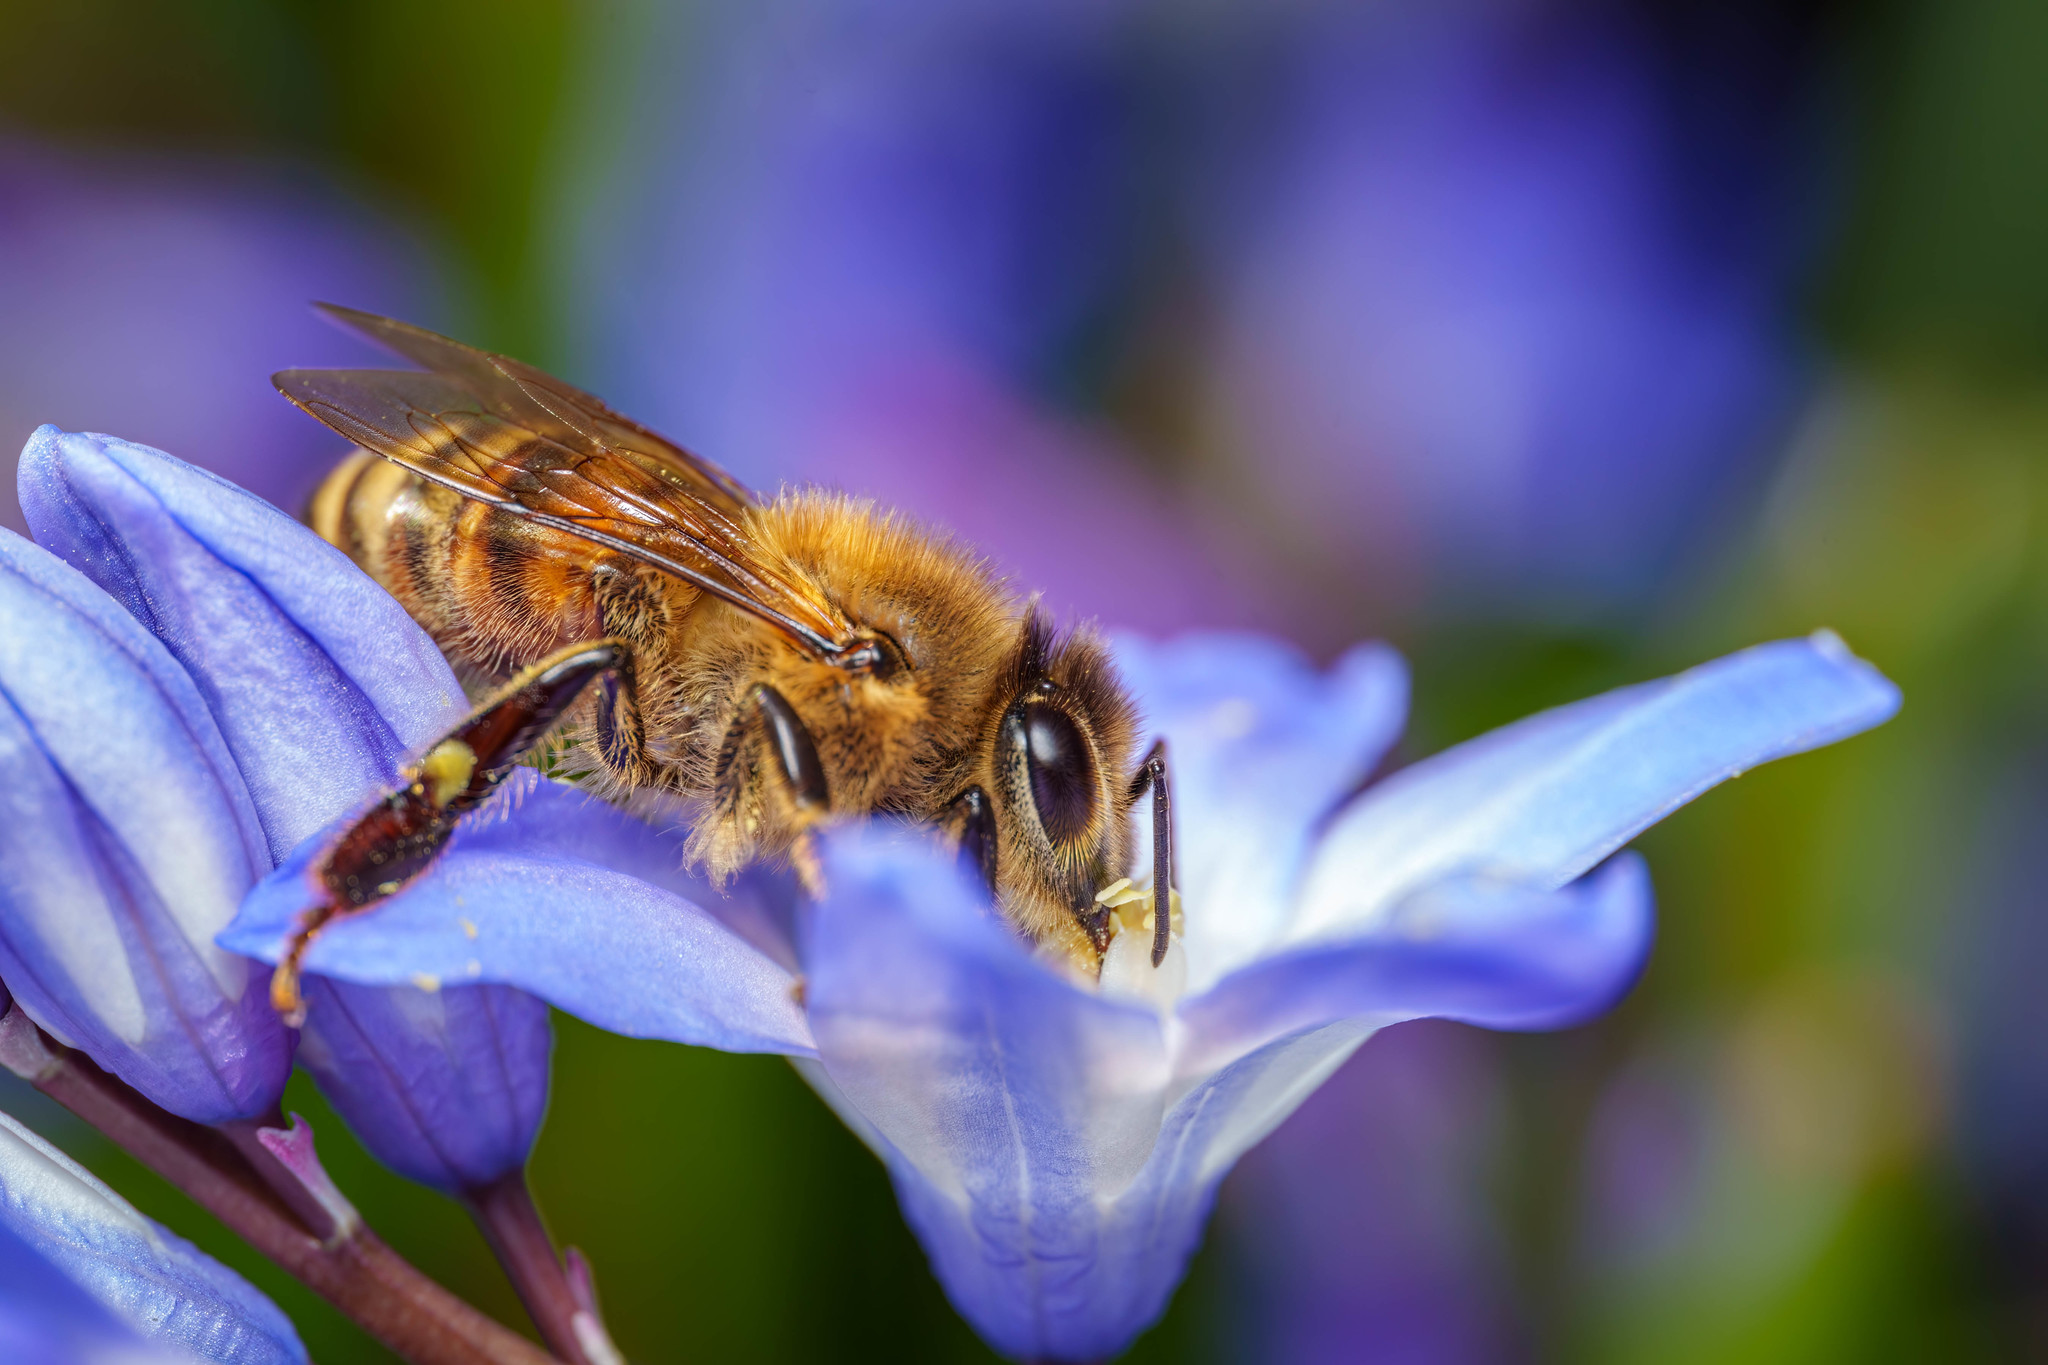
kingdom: Animalia
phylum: Arthropoda
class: Insecta
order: Hymenoptera
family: Apidae
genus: Apis
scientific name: Apis mellifera
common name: Honey bee
